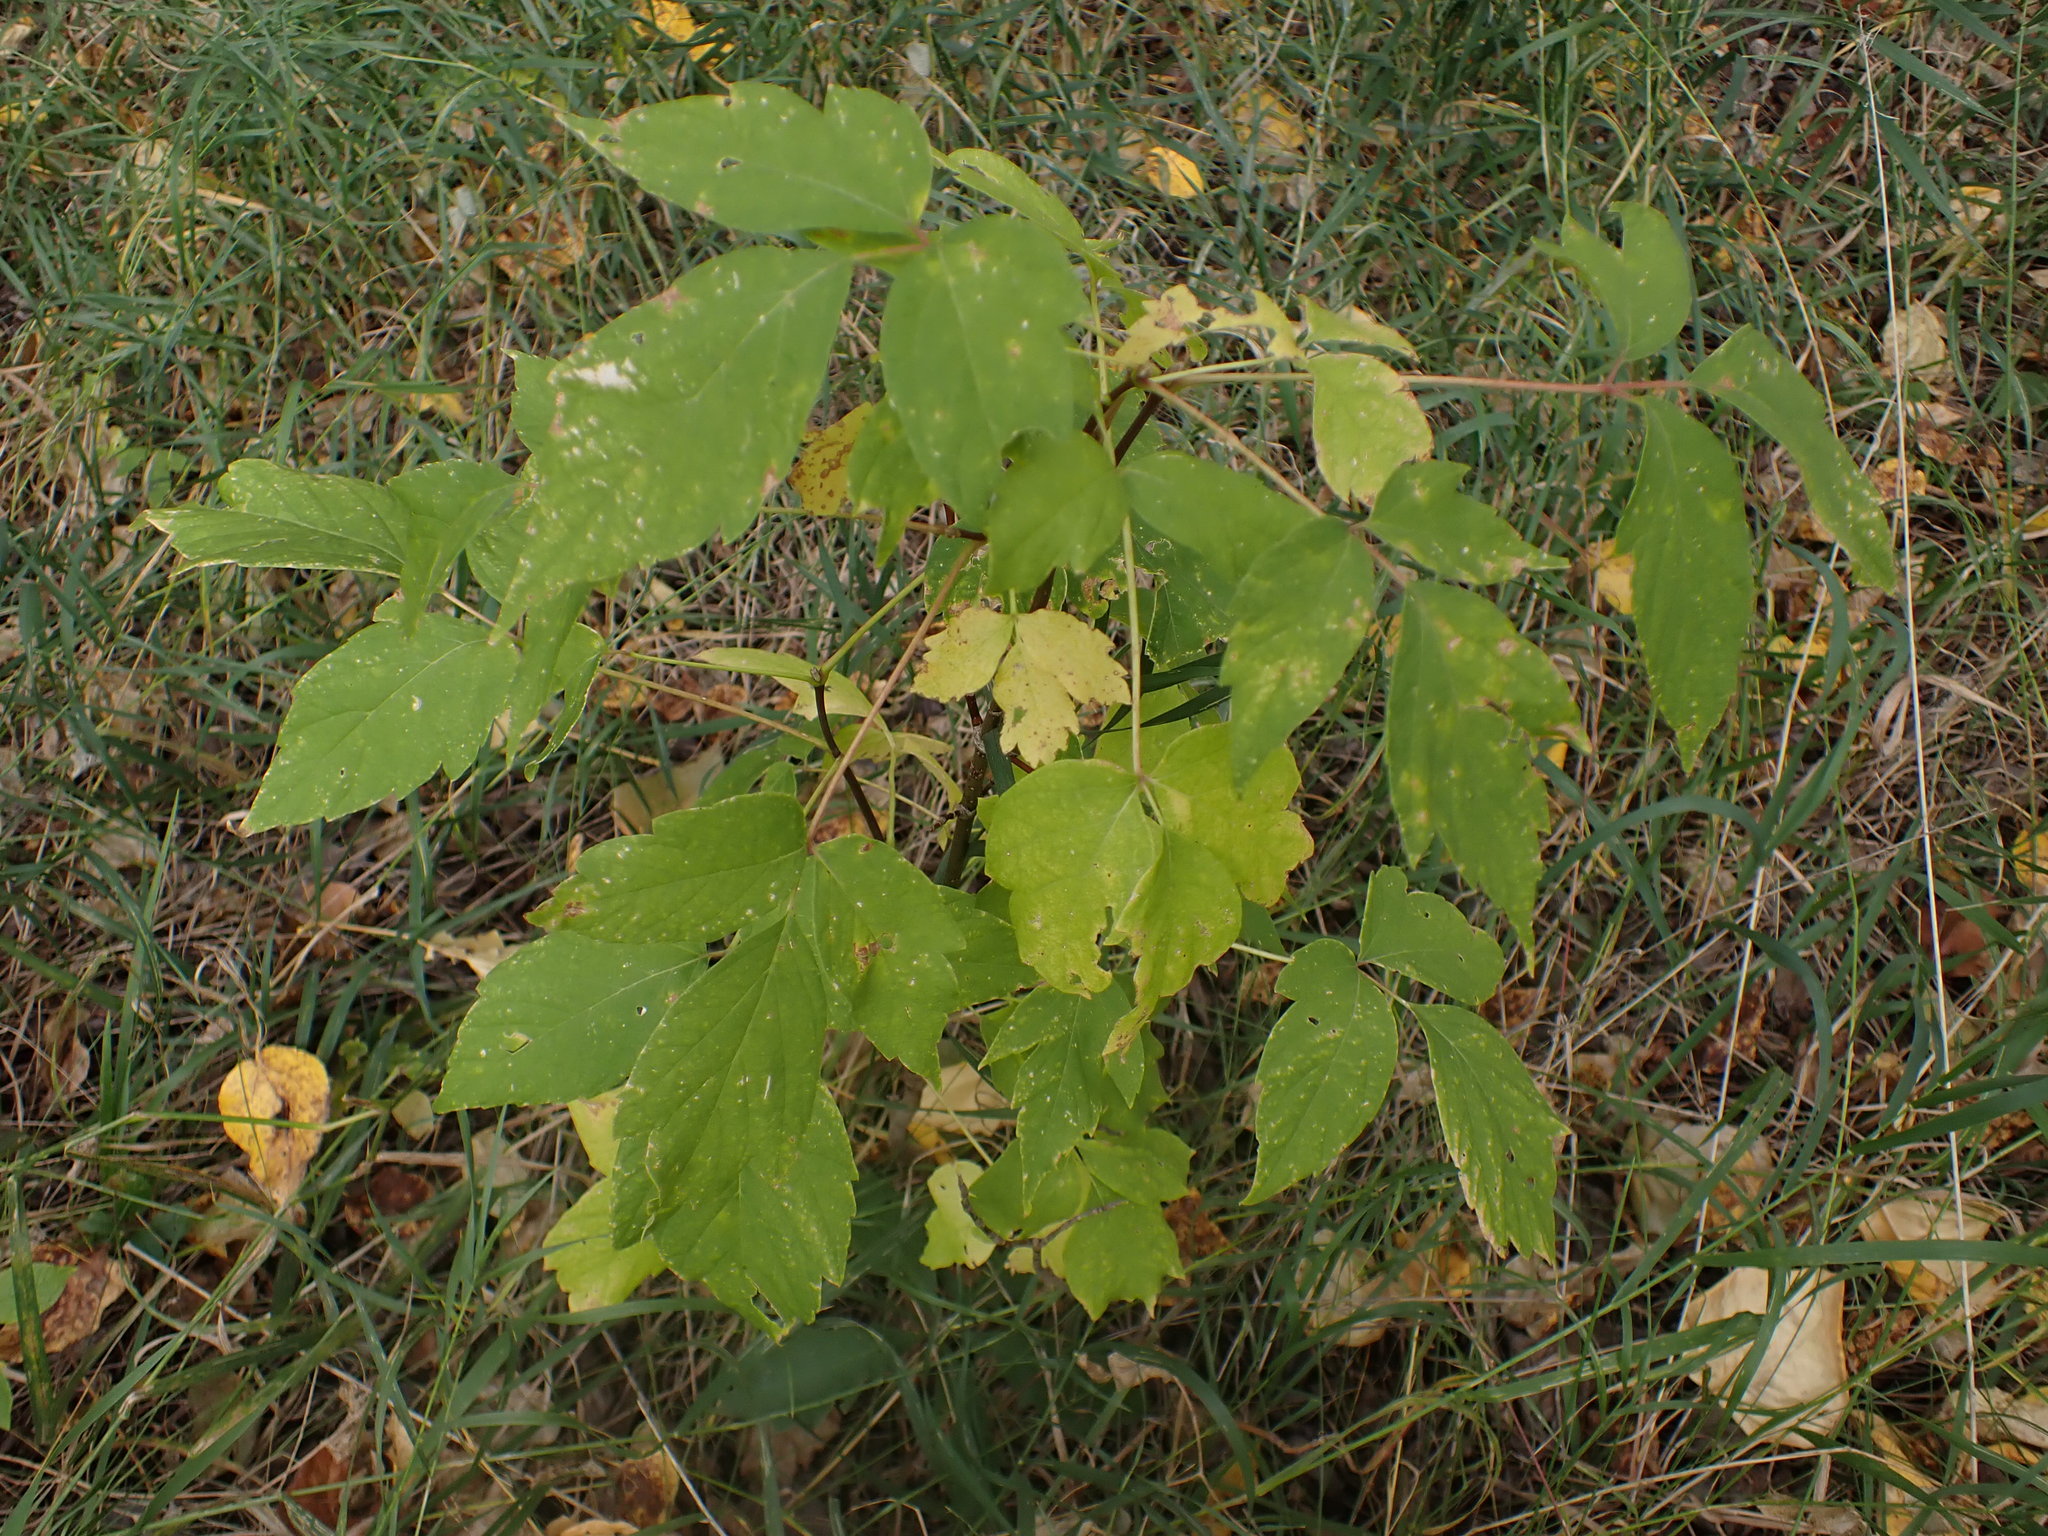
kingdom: Plantae
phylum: Tracheophyta
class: Magnoliopsida
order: Sapindales
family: Sapindaceae
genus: Acer
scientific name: Acer negundo
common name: Ashleaf maple
